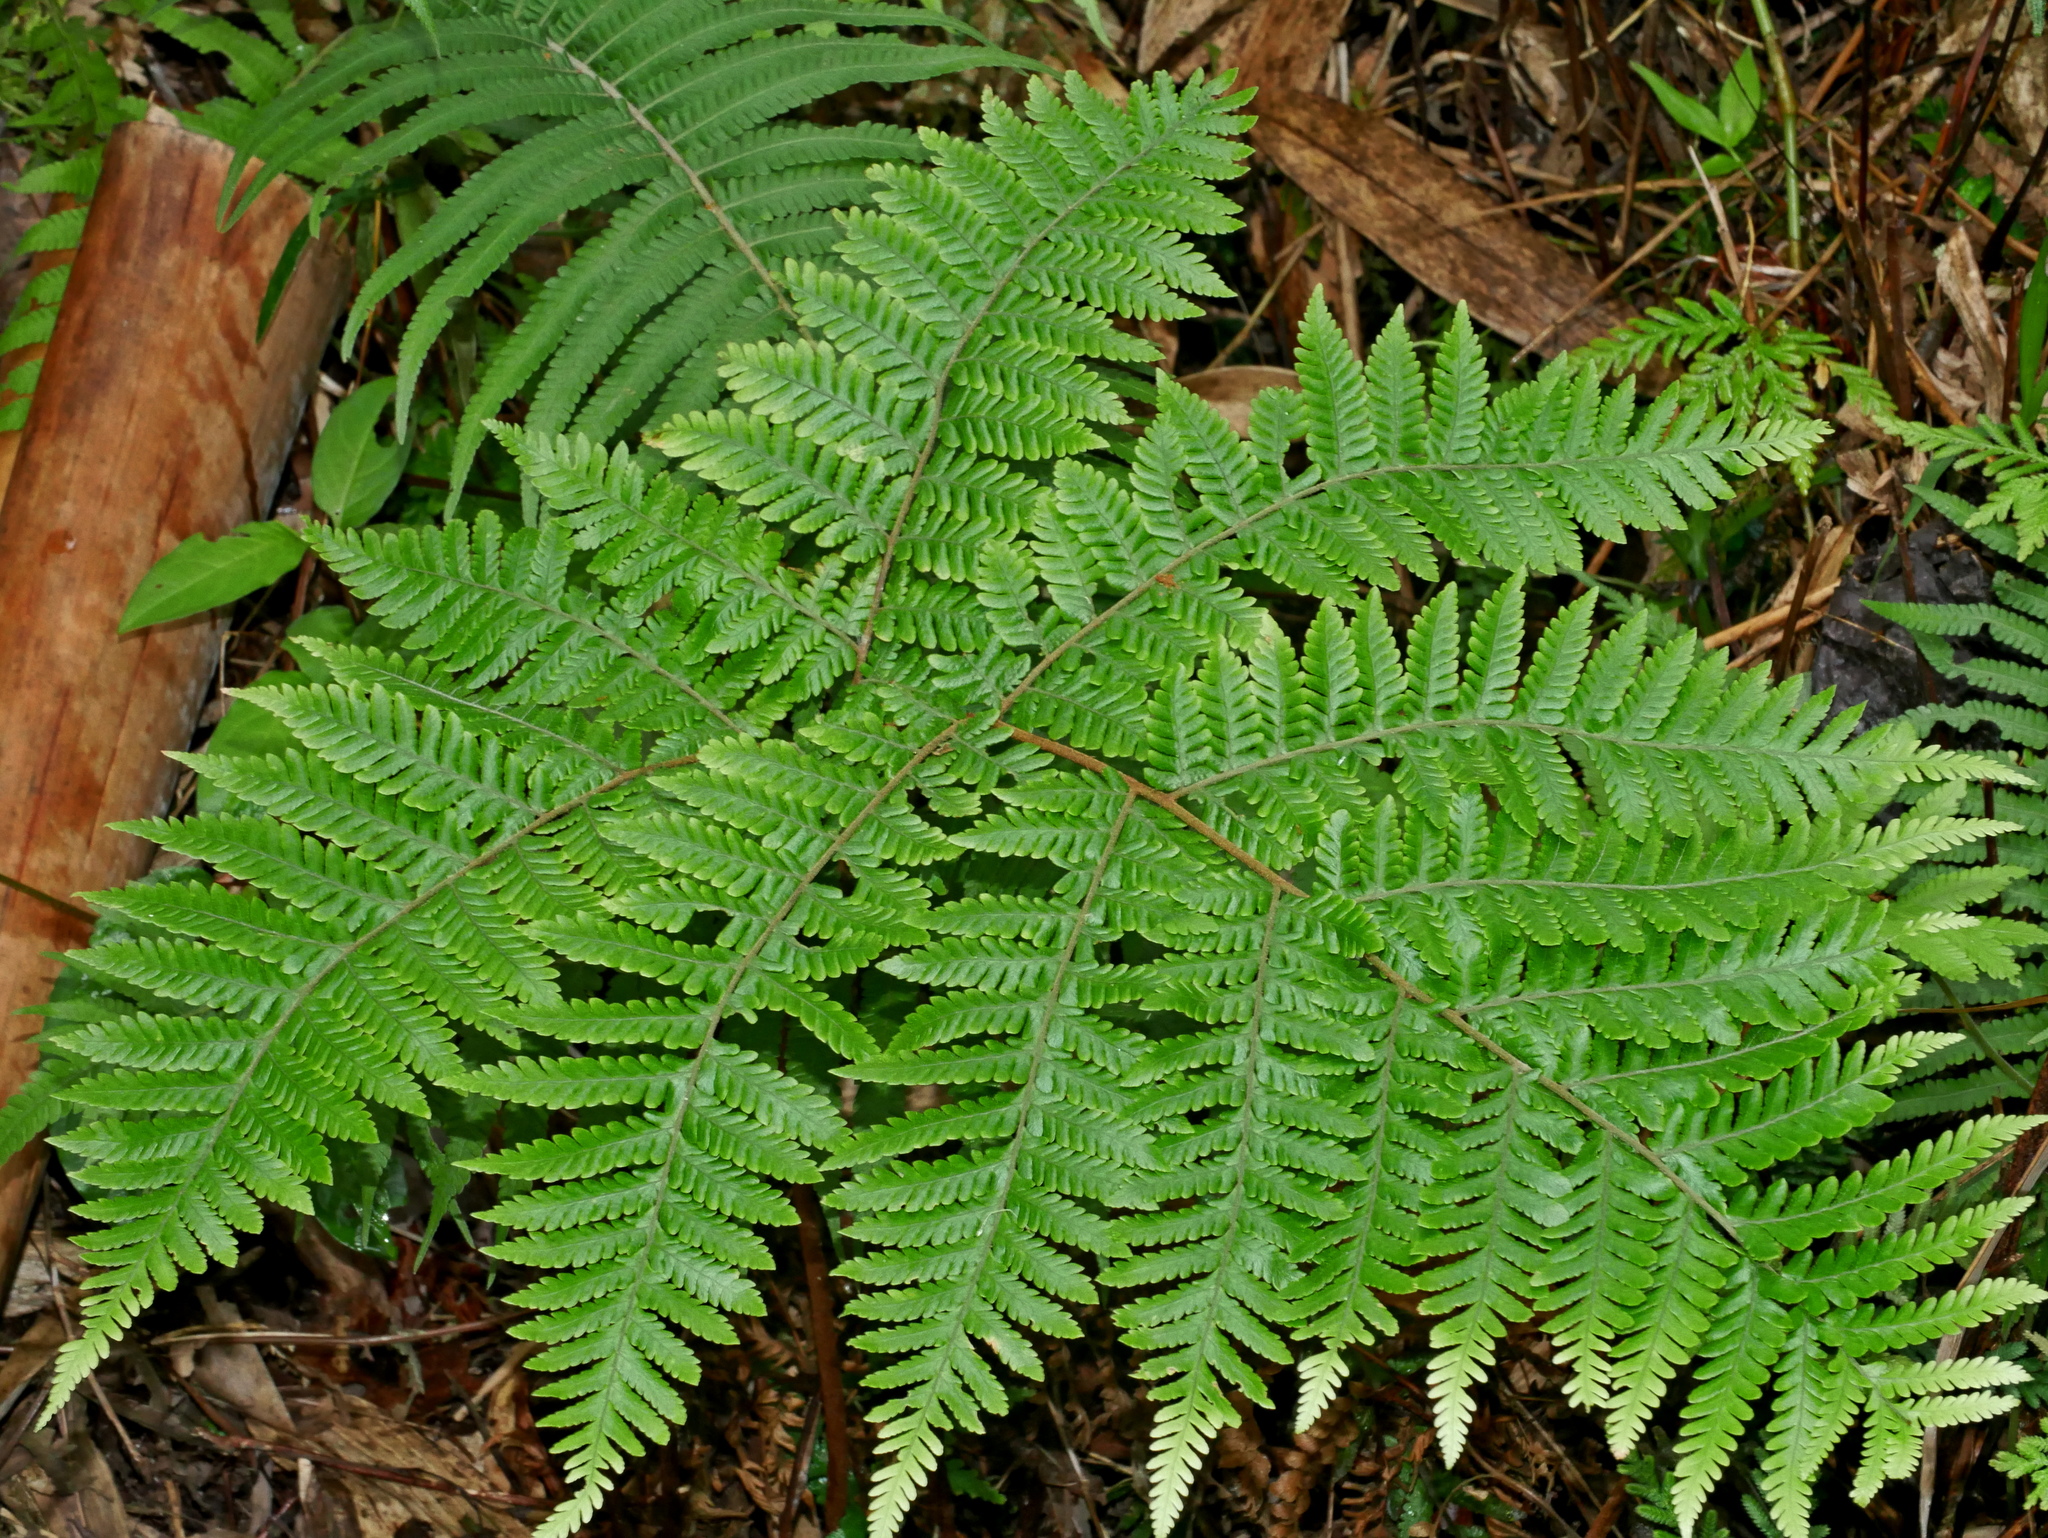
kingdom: Plantae
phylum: Tracheophyta
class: Polypodiopsida
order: Polypodiales
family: Dryopteridaceae
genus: Ctenitis
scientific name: Ctenitis subglandulosa
